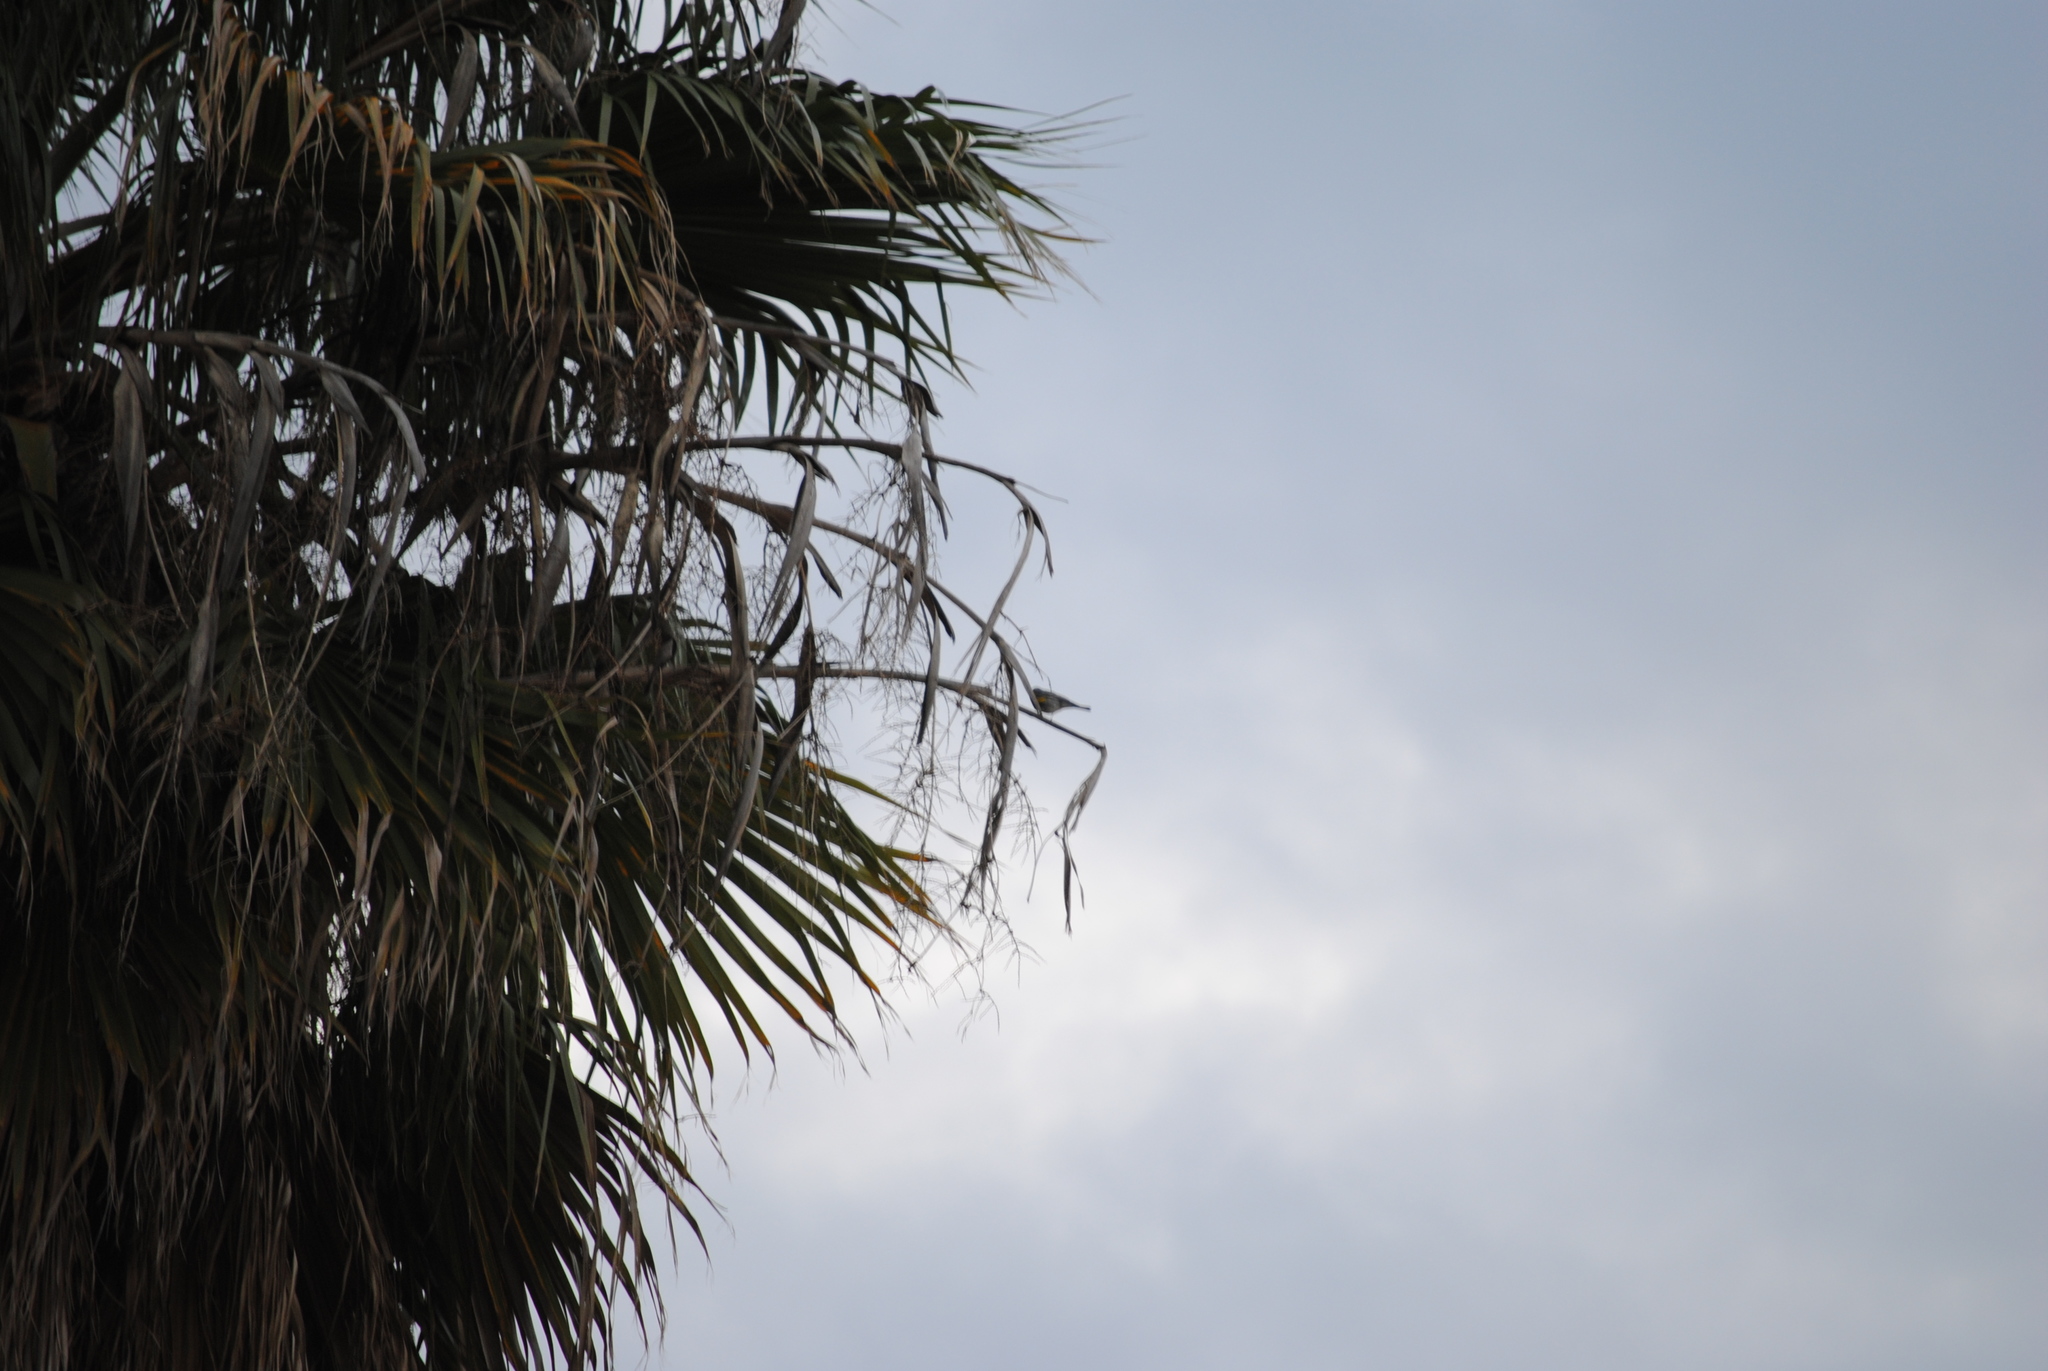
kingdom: Animalia
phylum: Chordata
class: Aves
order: Passeriformes
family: Parulidae
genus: Setophaga
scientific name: Setophaga coronata
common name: Myrtle warbler
